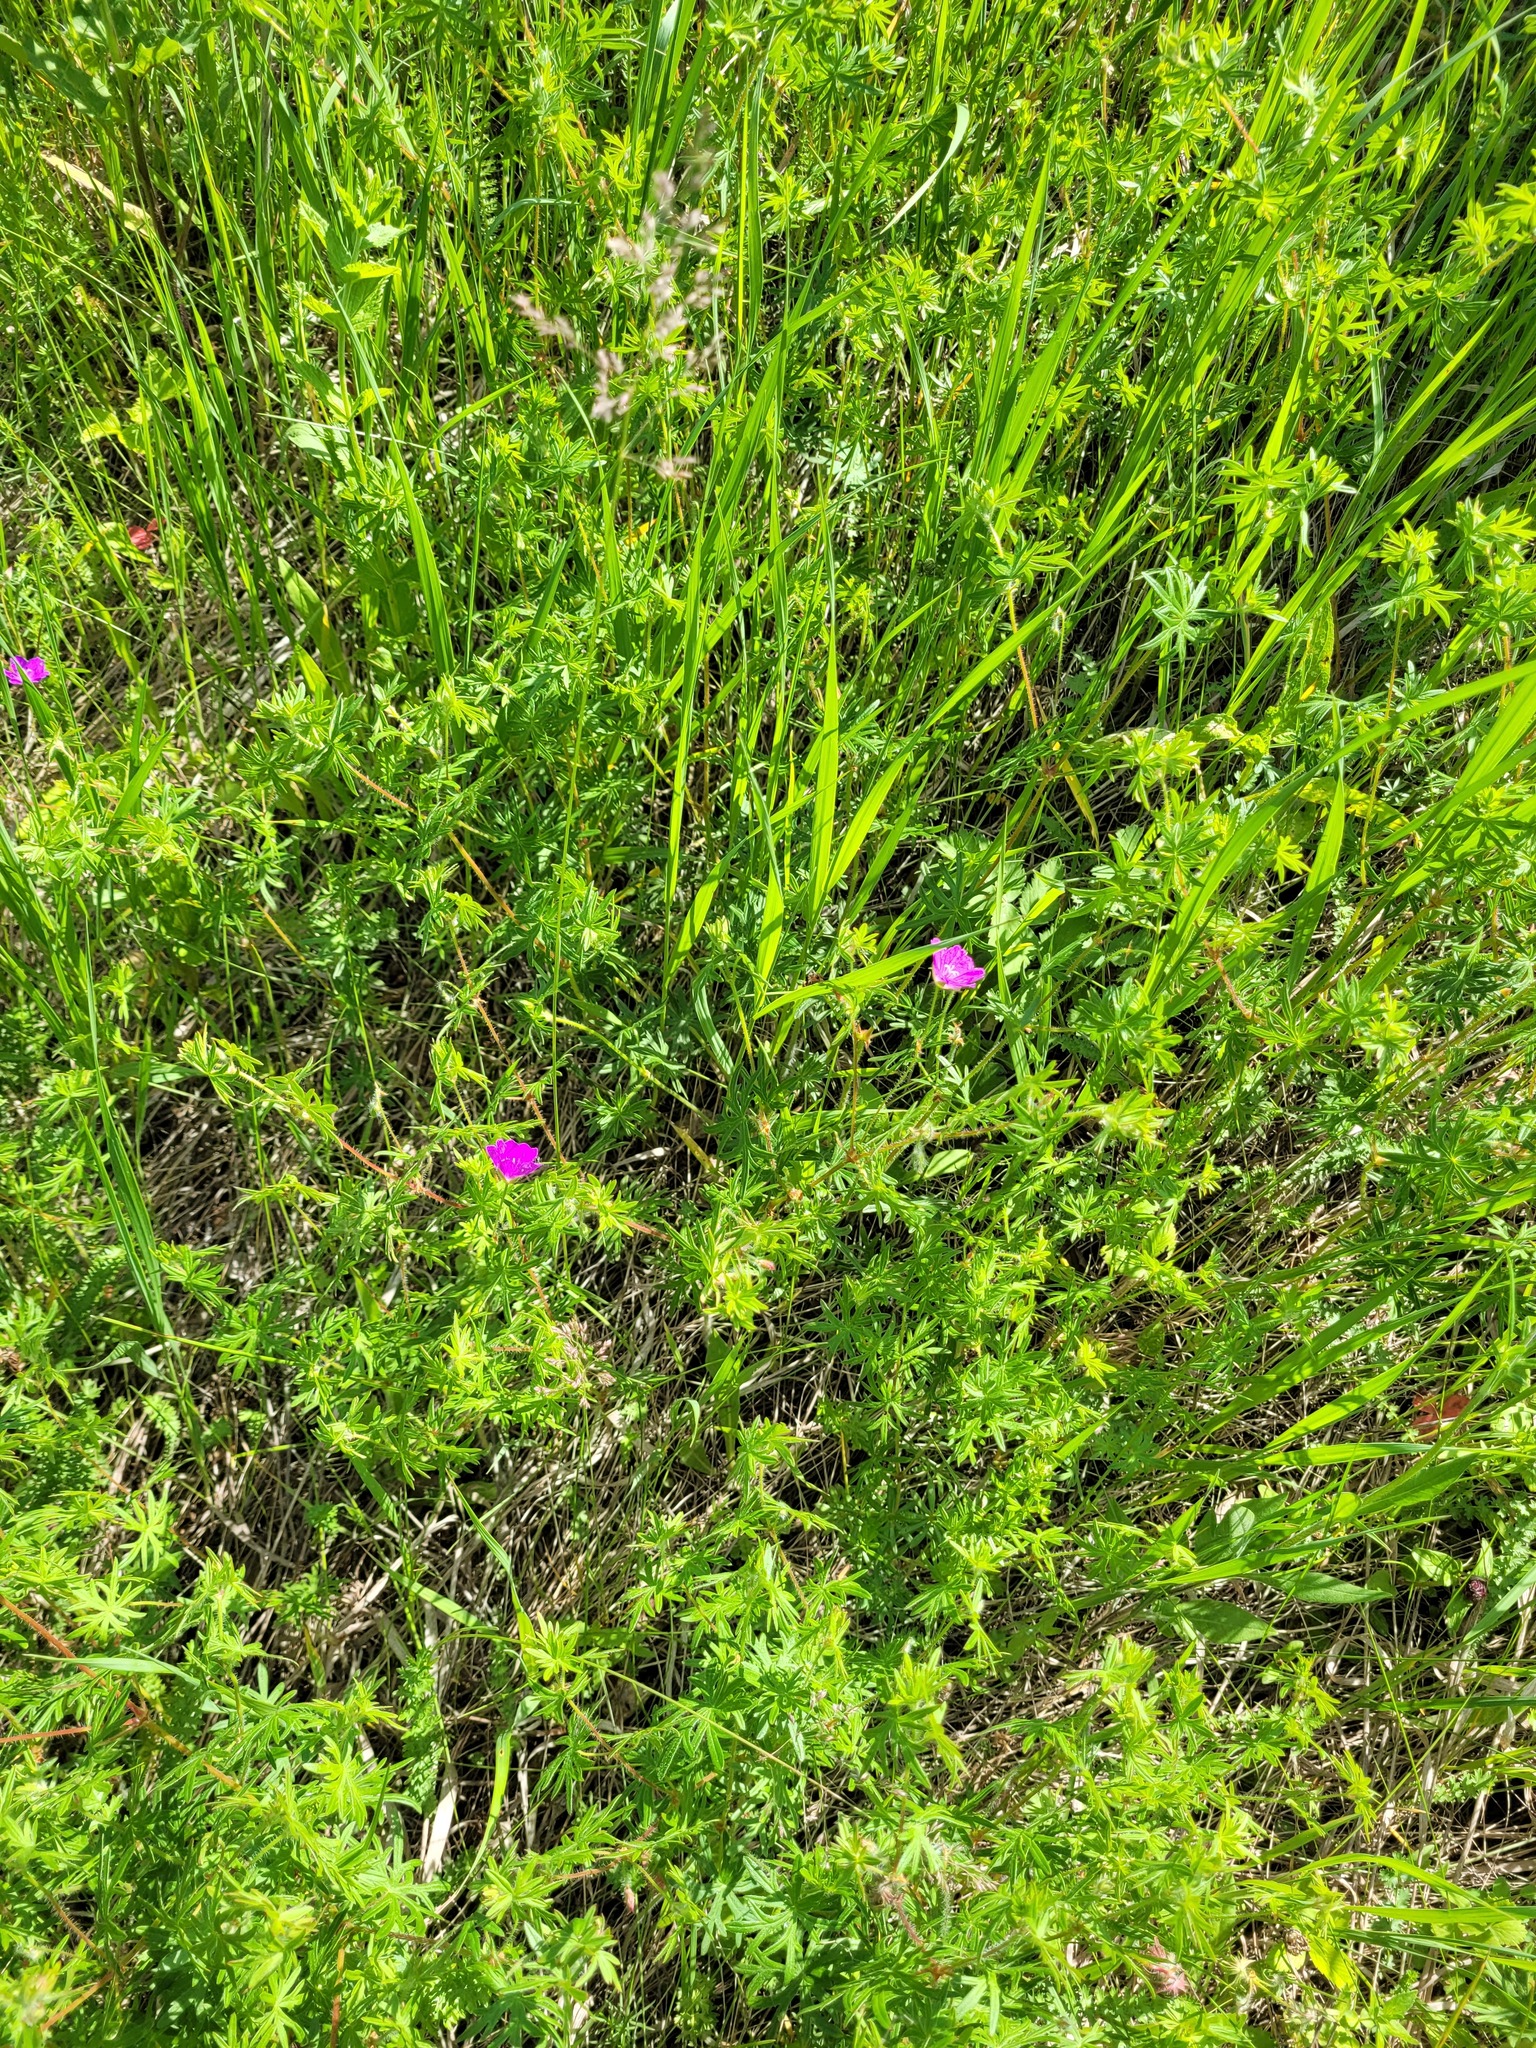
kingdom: Plantae
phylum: Tracheophyta
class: Magnoliopsida
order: Geraniales
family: Geraniaceae
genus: Geranium
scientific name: Geranium sanguineum
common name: Bloody crane's-bill
